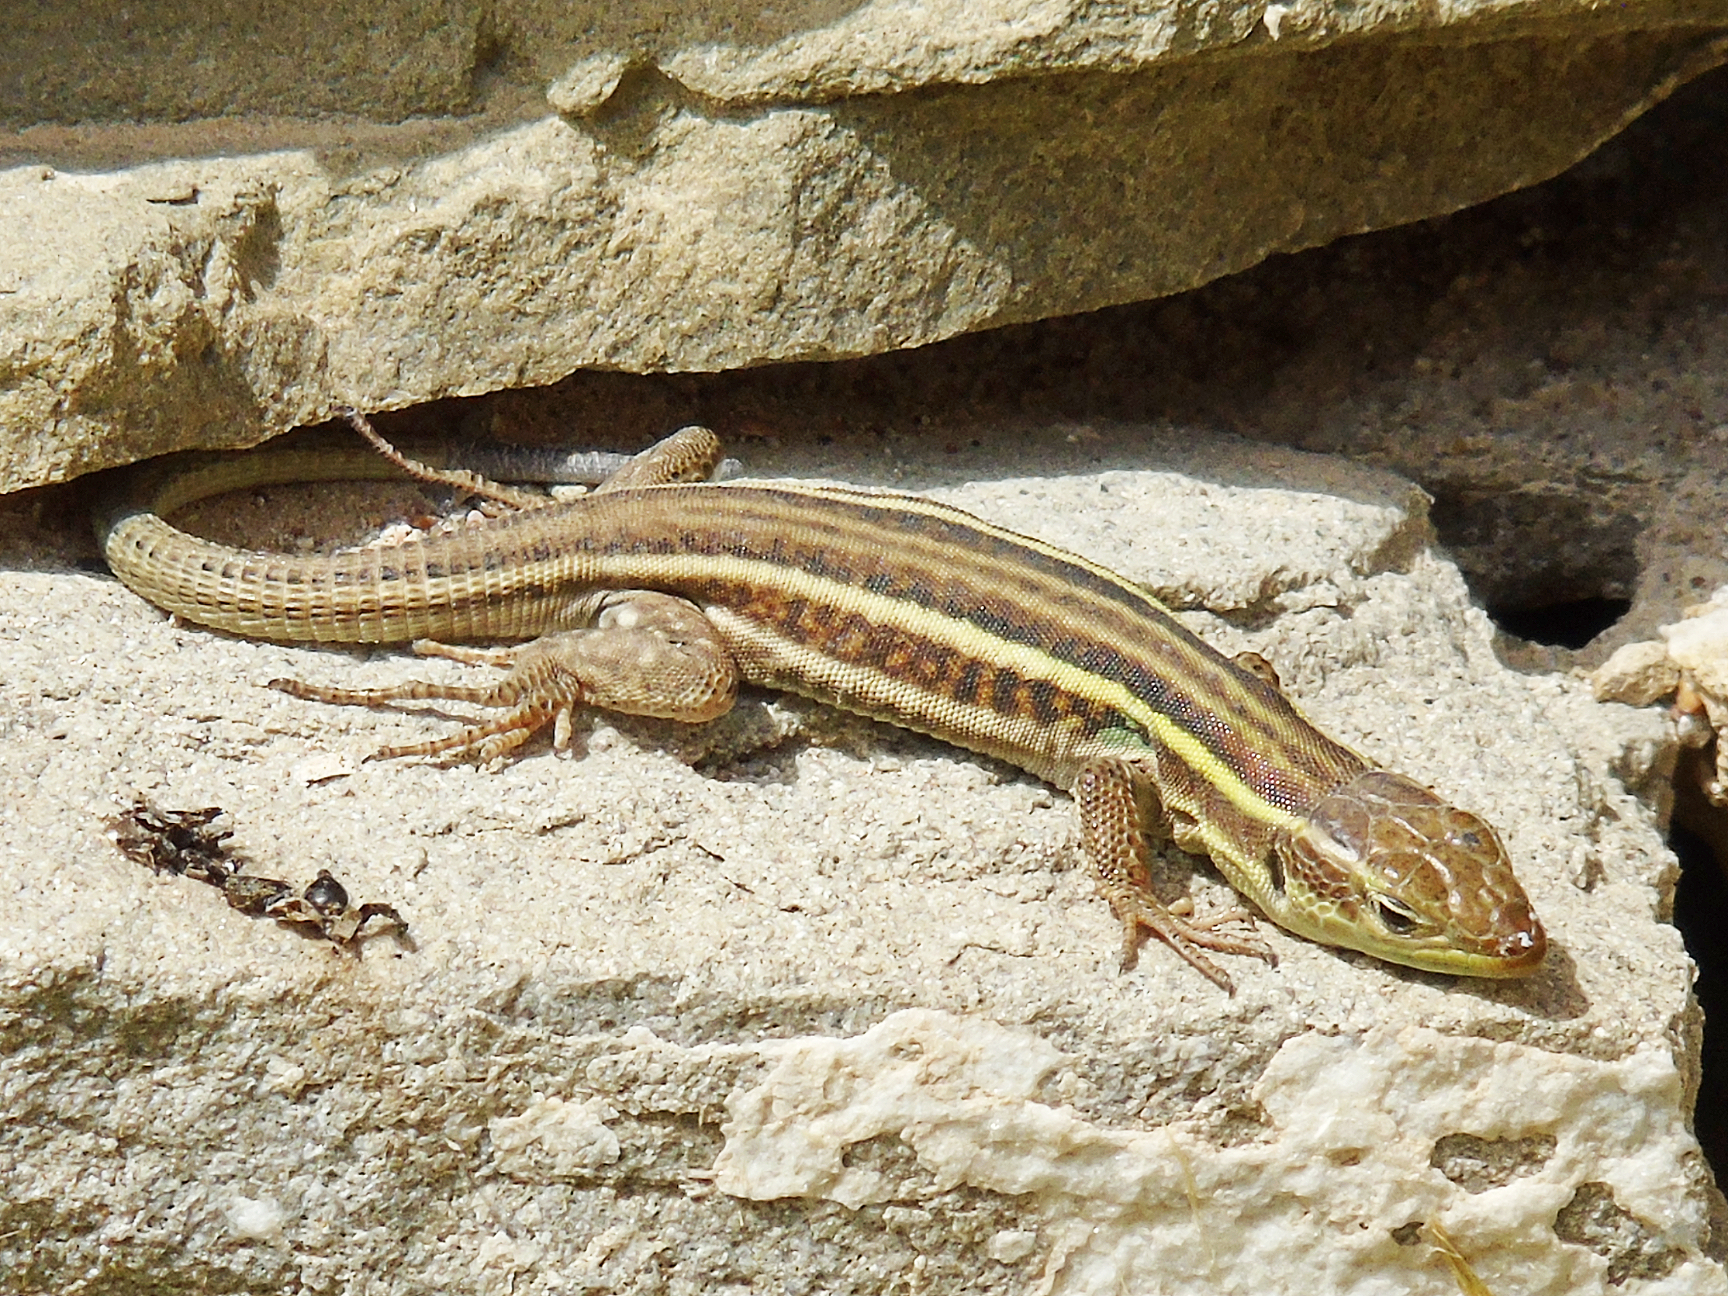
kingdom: Animalia
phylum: Chordata
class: Squamata
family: Lacertidae
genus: Podarcis
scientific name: Podarcis peloponnesiacus
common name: Peloponnese wall lizard
